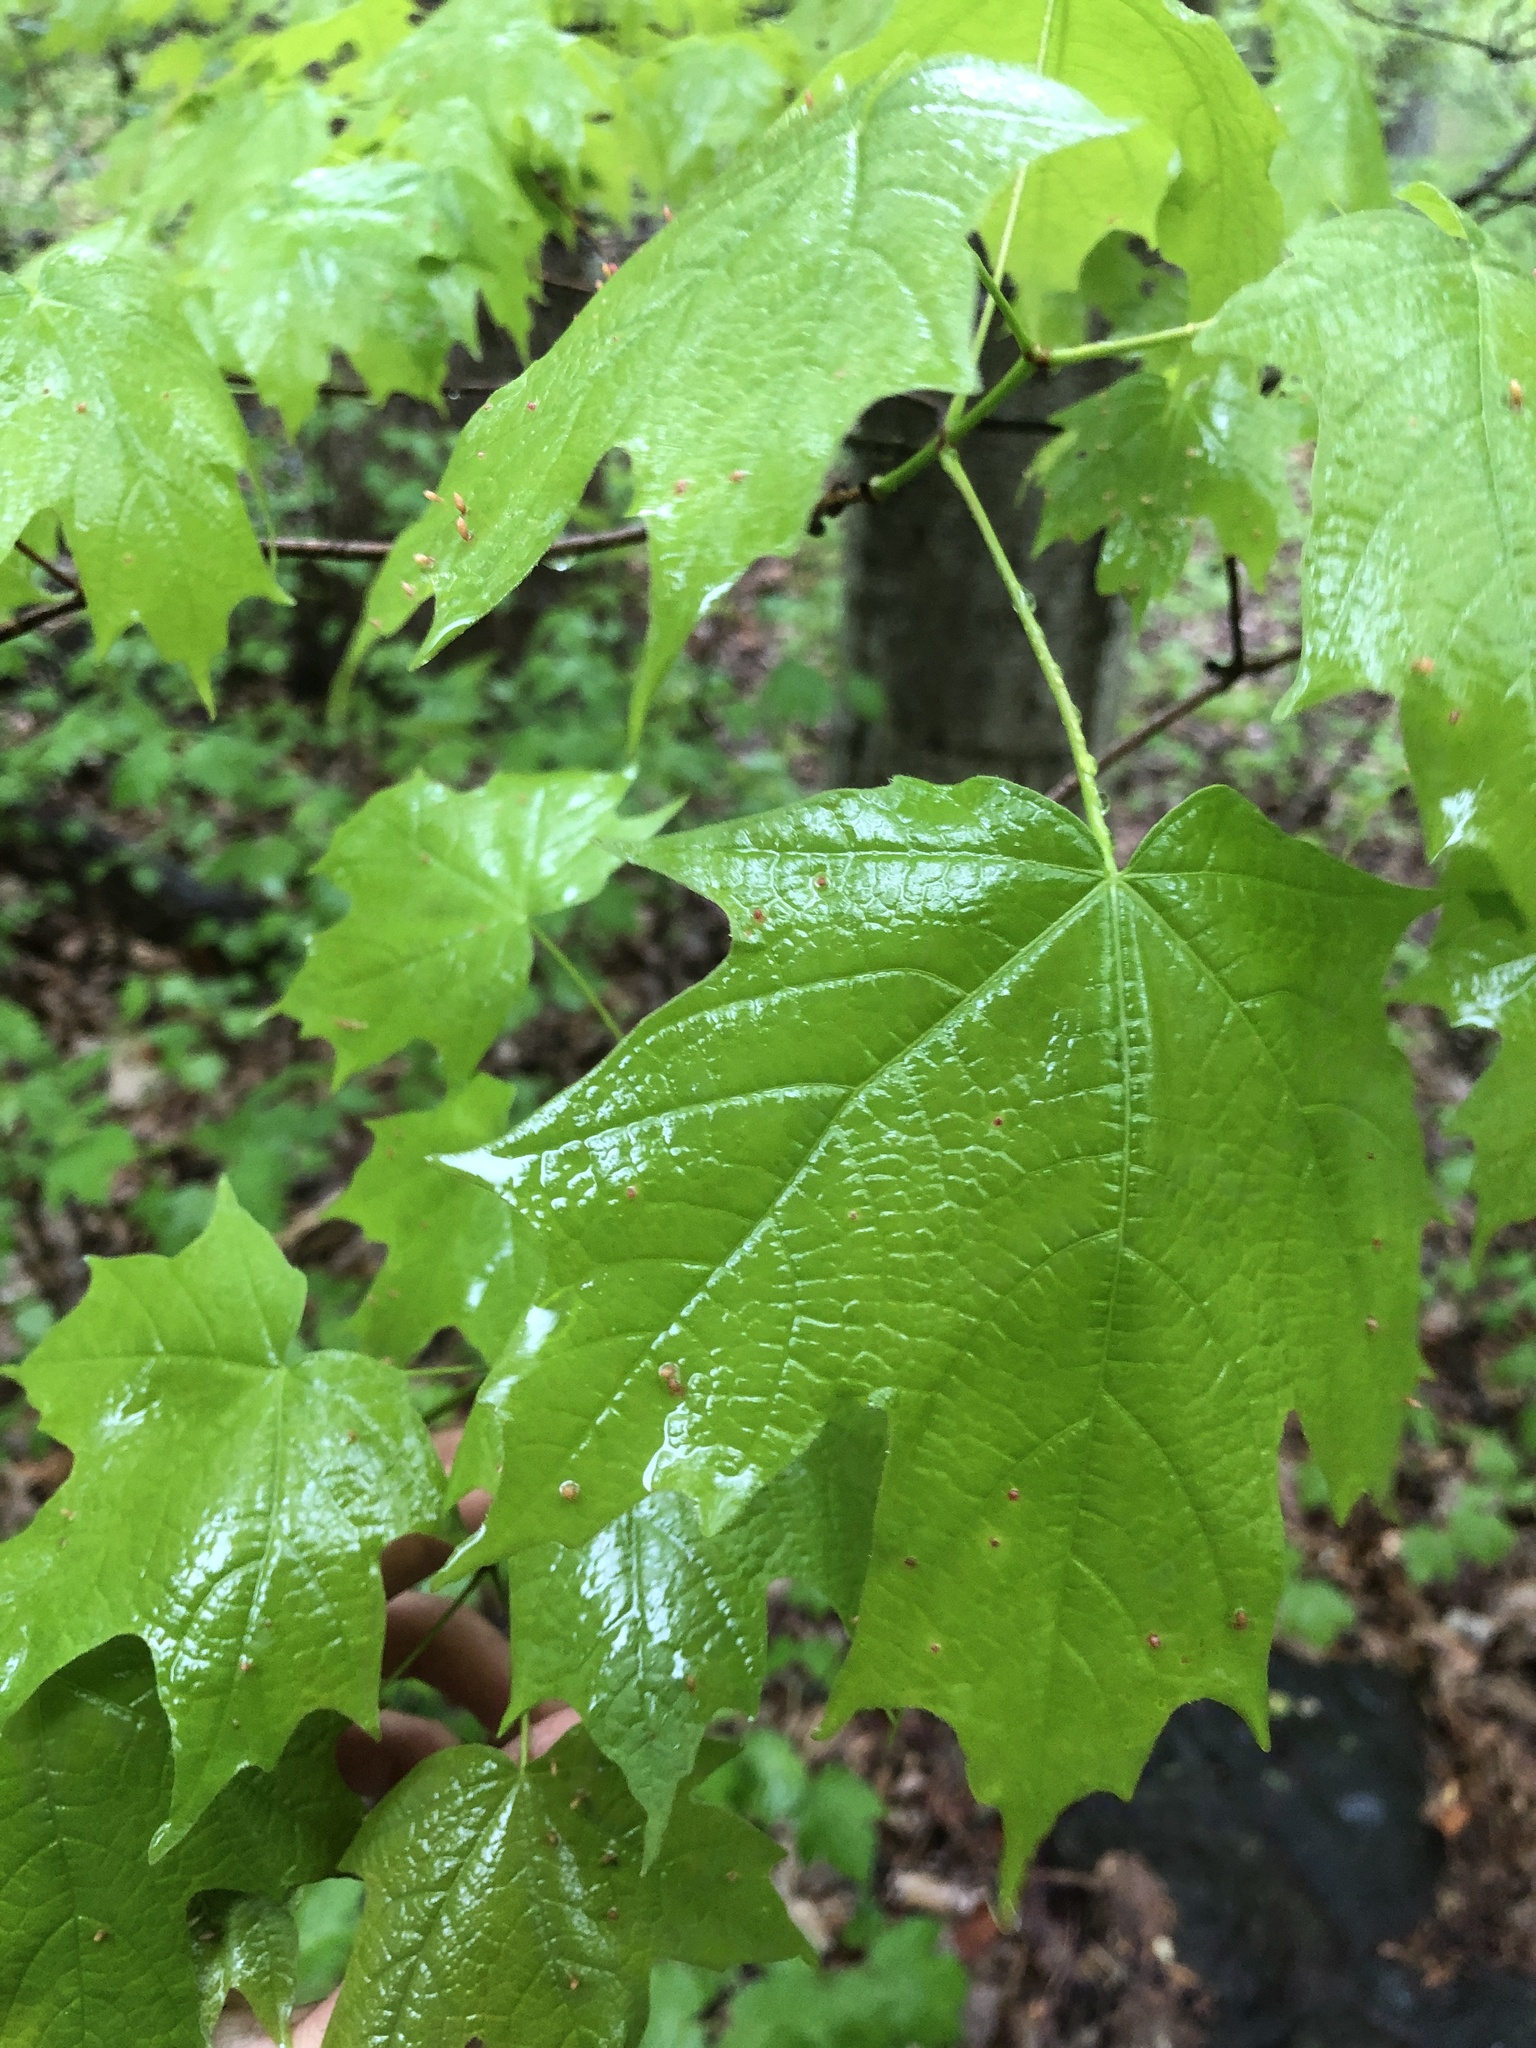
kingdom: Plantae
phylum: Tracheophyta
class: Magnoliopsida
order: Sapindales
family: Sapindaceae
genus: Acer
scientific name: Acer saccharum
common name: Sugar maple
